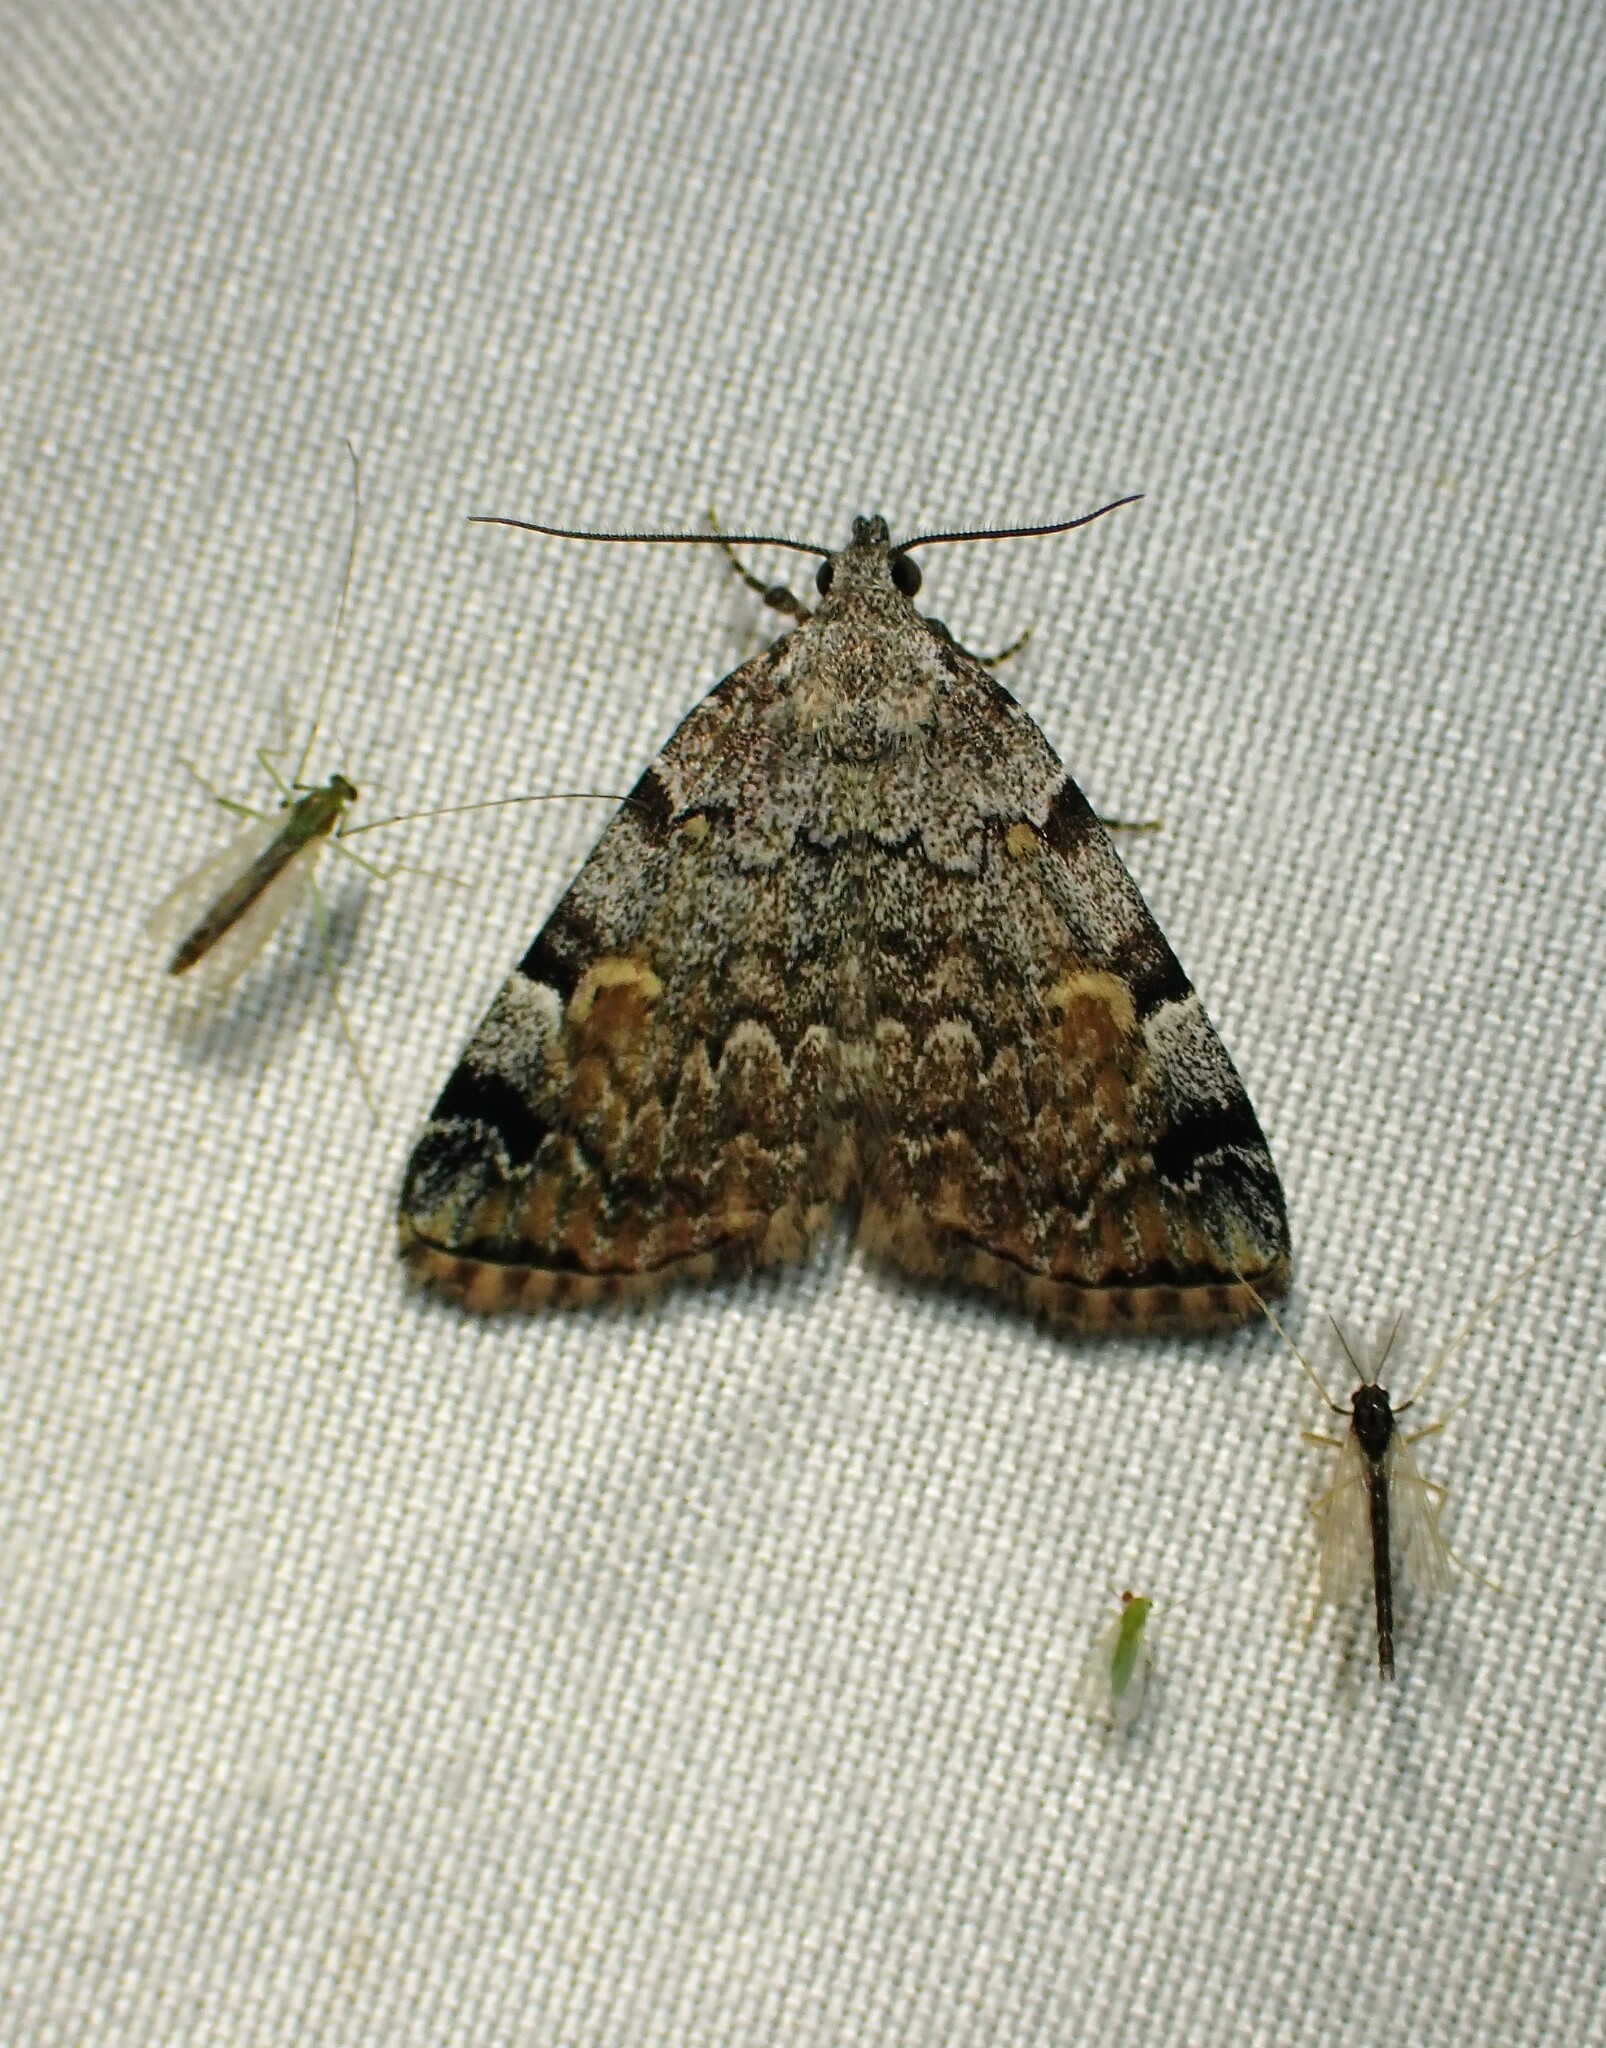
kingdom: Animalia
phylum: Arthropoda
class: Insecta
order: Lepidoptera
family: Erebidae
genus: Idia
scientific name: Idia americalis
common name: American idia moth
